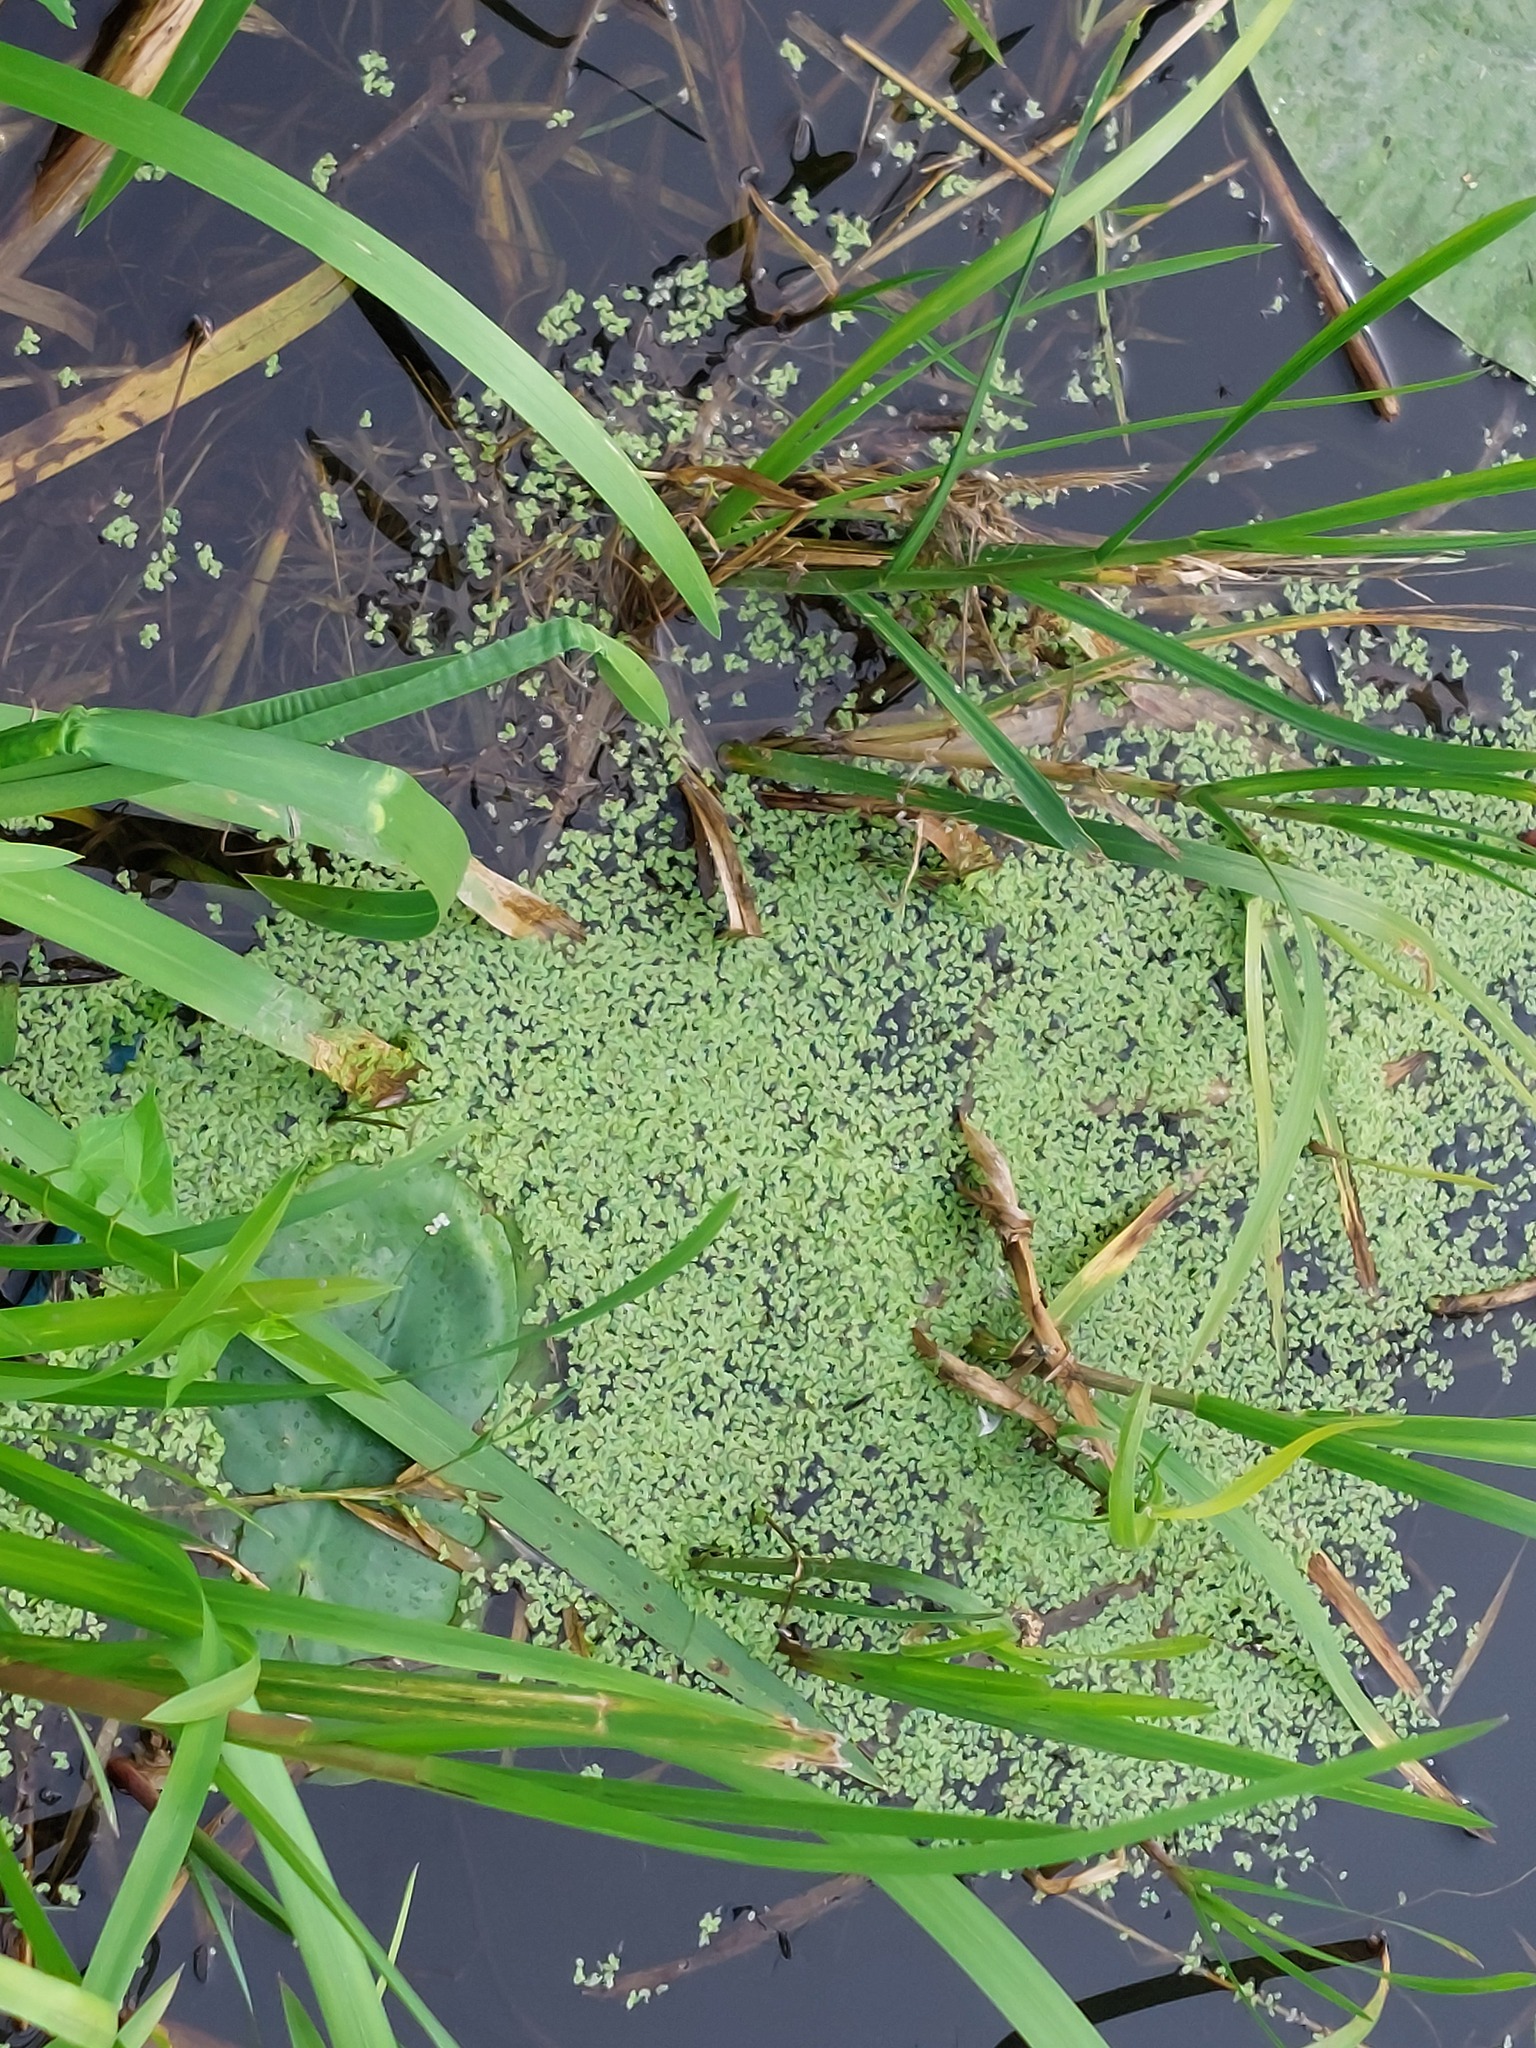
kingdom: Plantae
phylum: Tracheophyta
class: Liliopsida
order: Alismatales
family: Araceae
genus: Lemna
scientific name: Lemna minor
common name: Common duckweed
